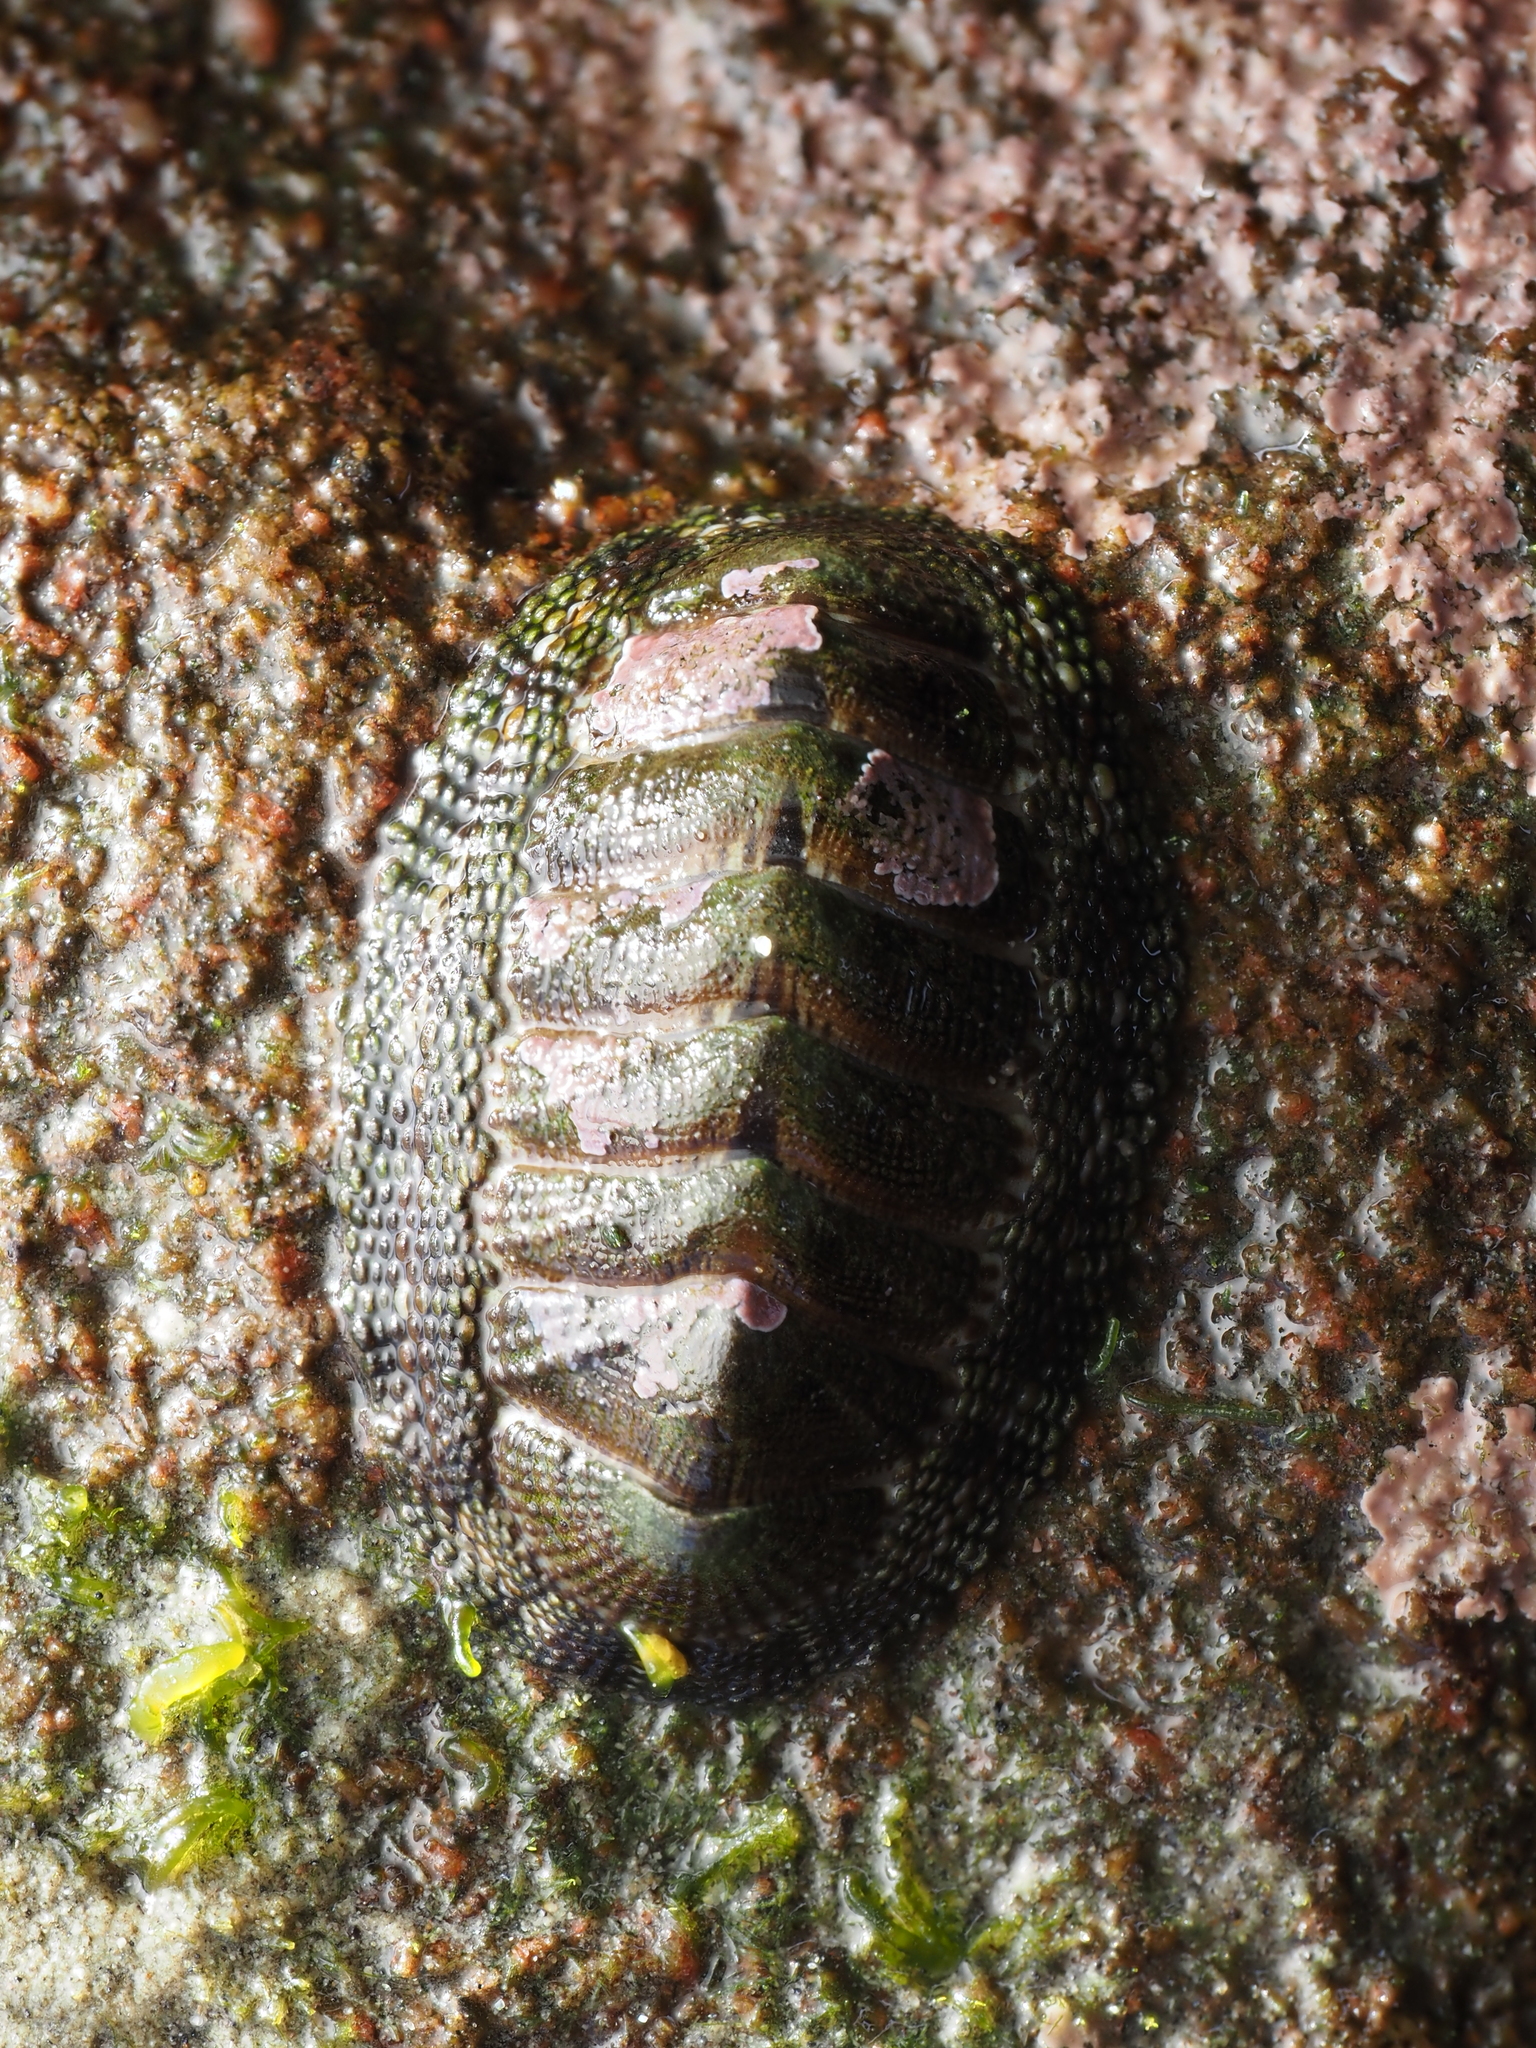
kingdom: Animalia
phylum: Mollusca
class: Polyplacophora
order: Chitonida
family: Chitonidae
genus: Sypharochiton
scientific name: Sypharochiton pelliserpentis
